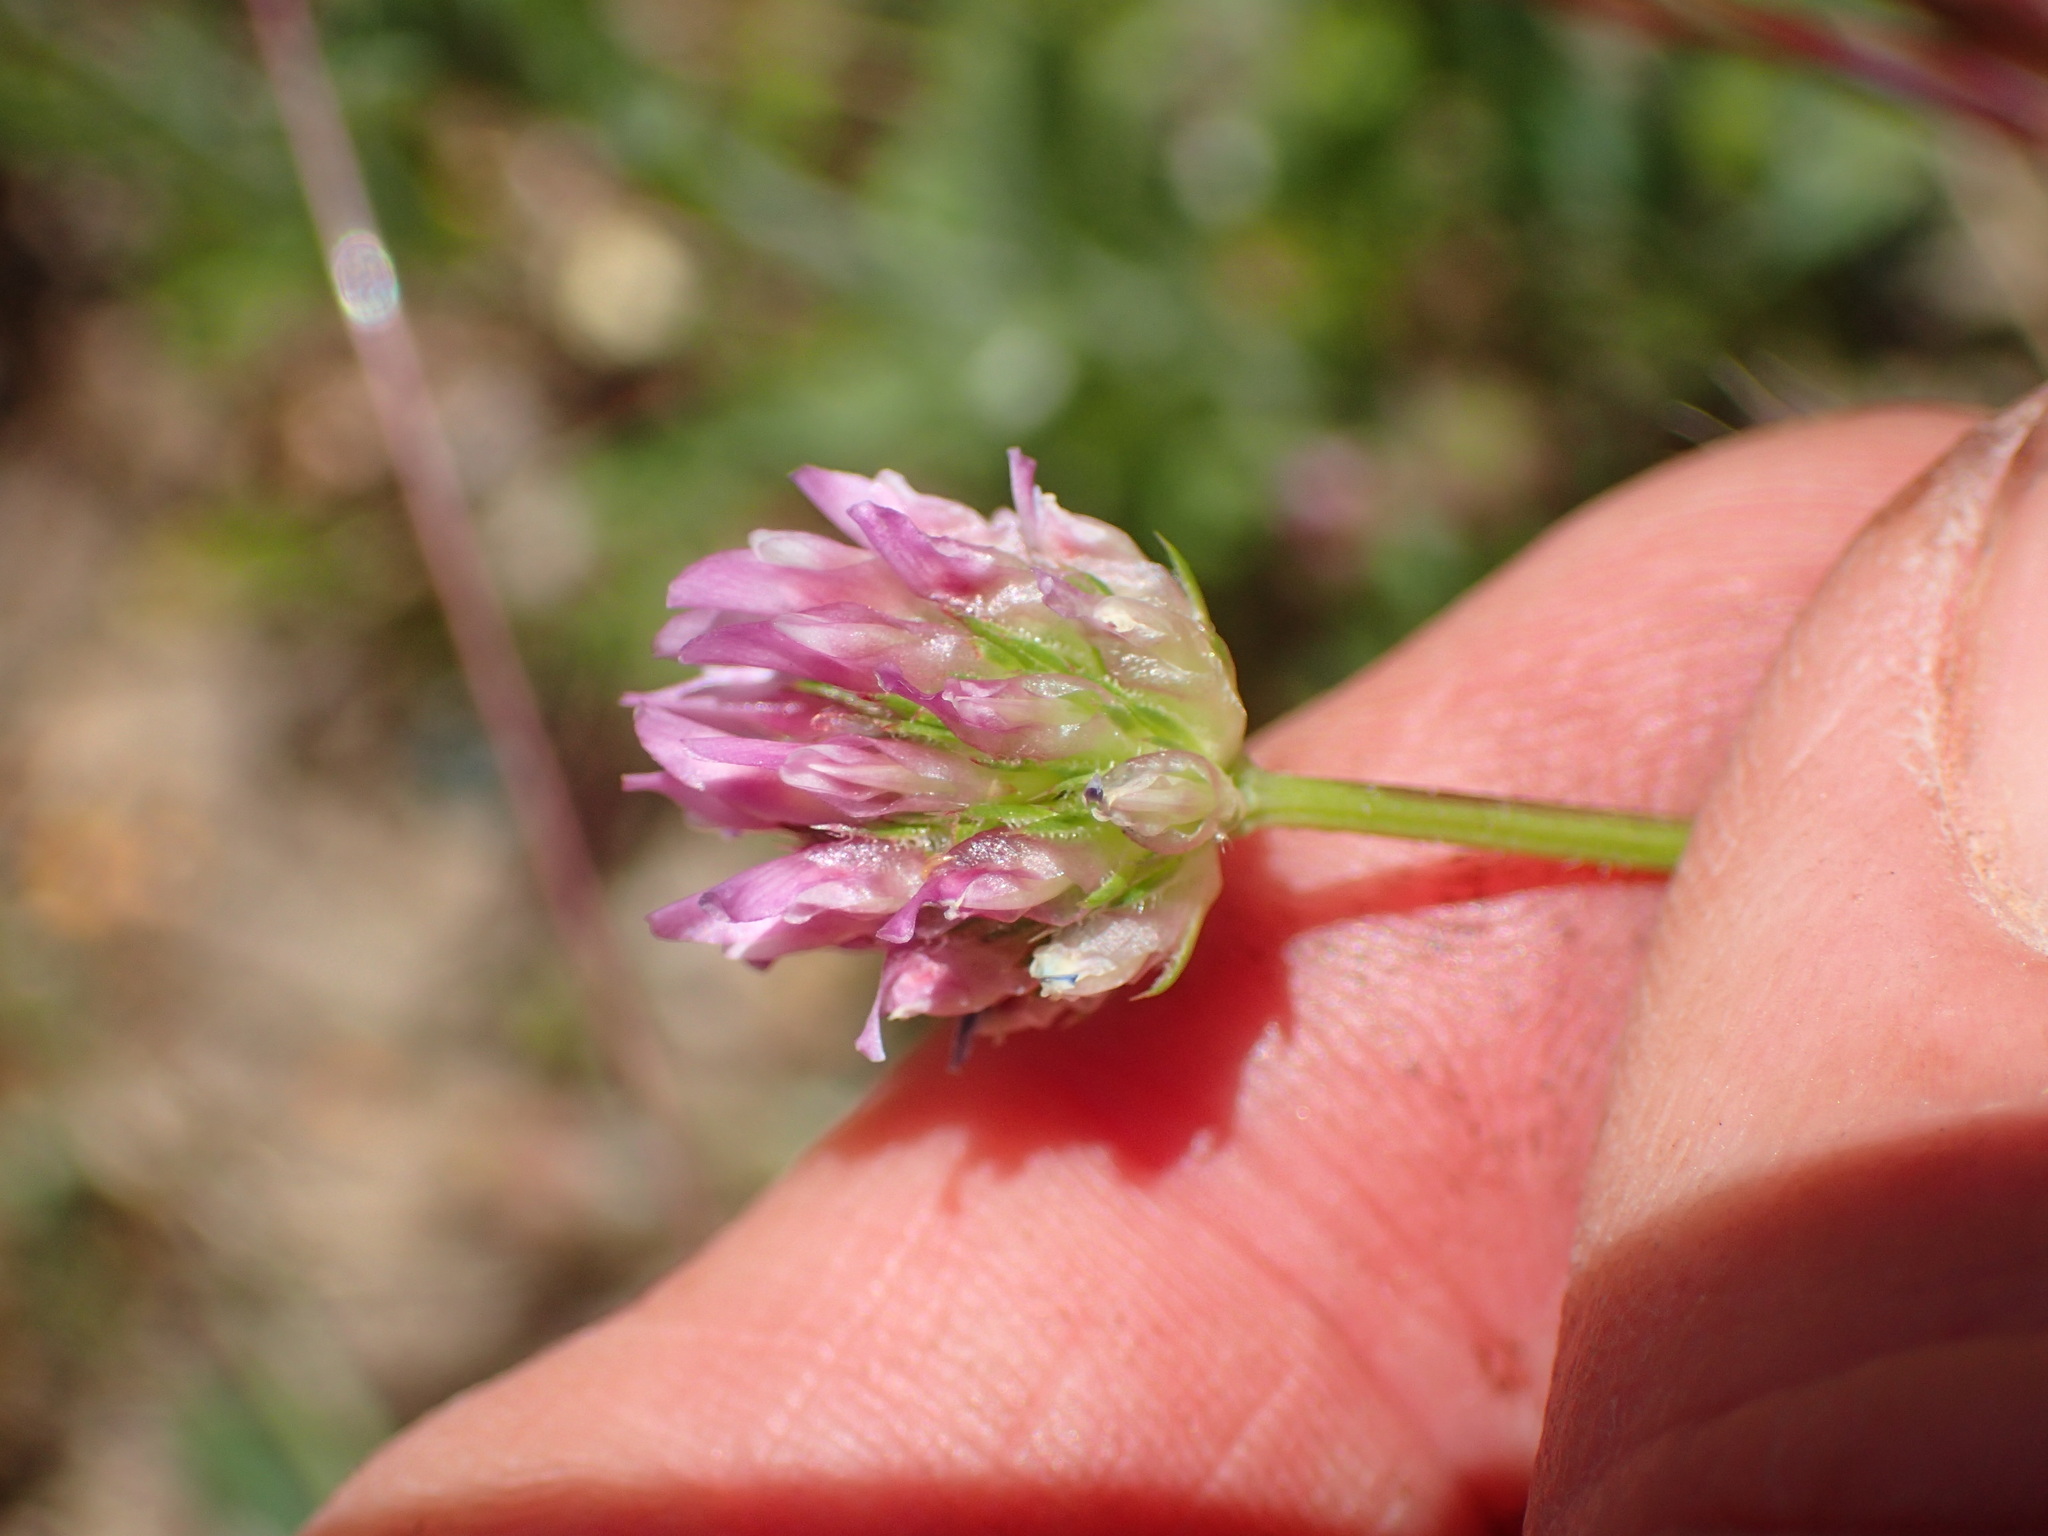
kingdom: Plantae
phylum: Tracheophyta
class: Magnoliopsida
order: Fabales
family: Fabaceae
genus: Trifolium
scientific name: Trifolium ciliolatum
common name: Foothill clover
